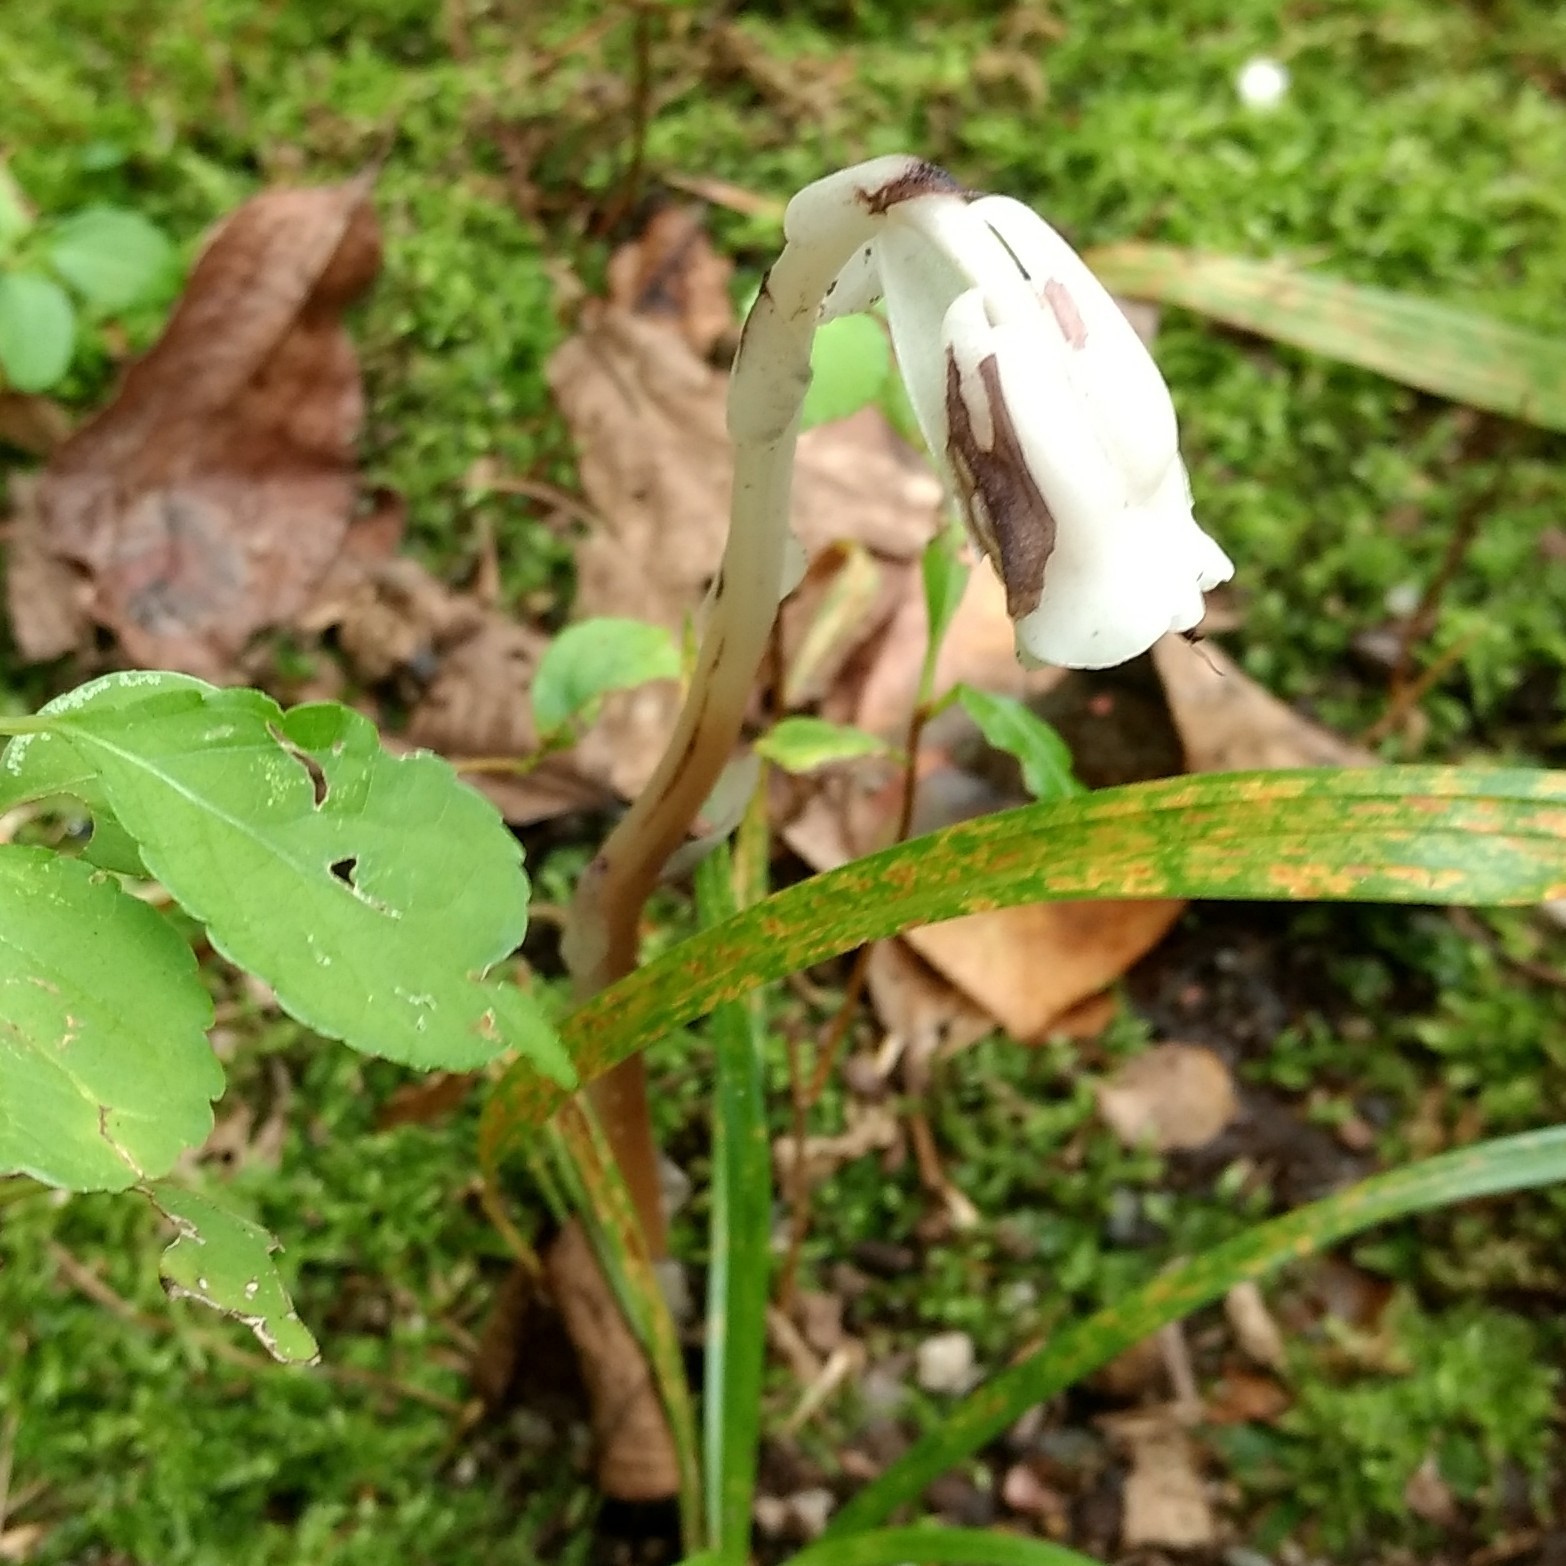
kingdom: Plantae
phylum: Tracheophyta
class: Magnoliopsida
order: Ericales
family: Ericaceae
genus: Monotropa
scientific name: Monotropa uniflora
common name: Convulsion root
